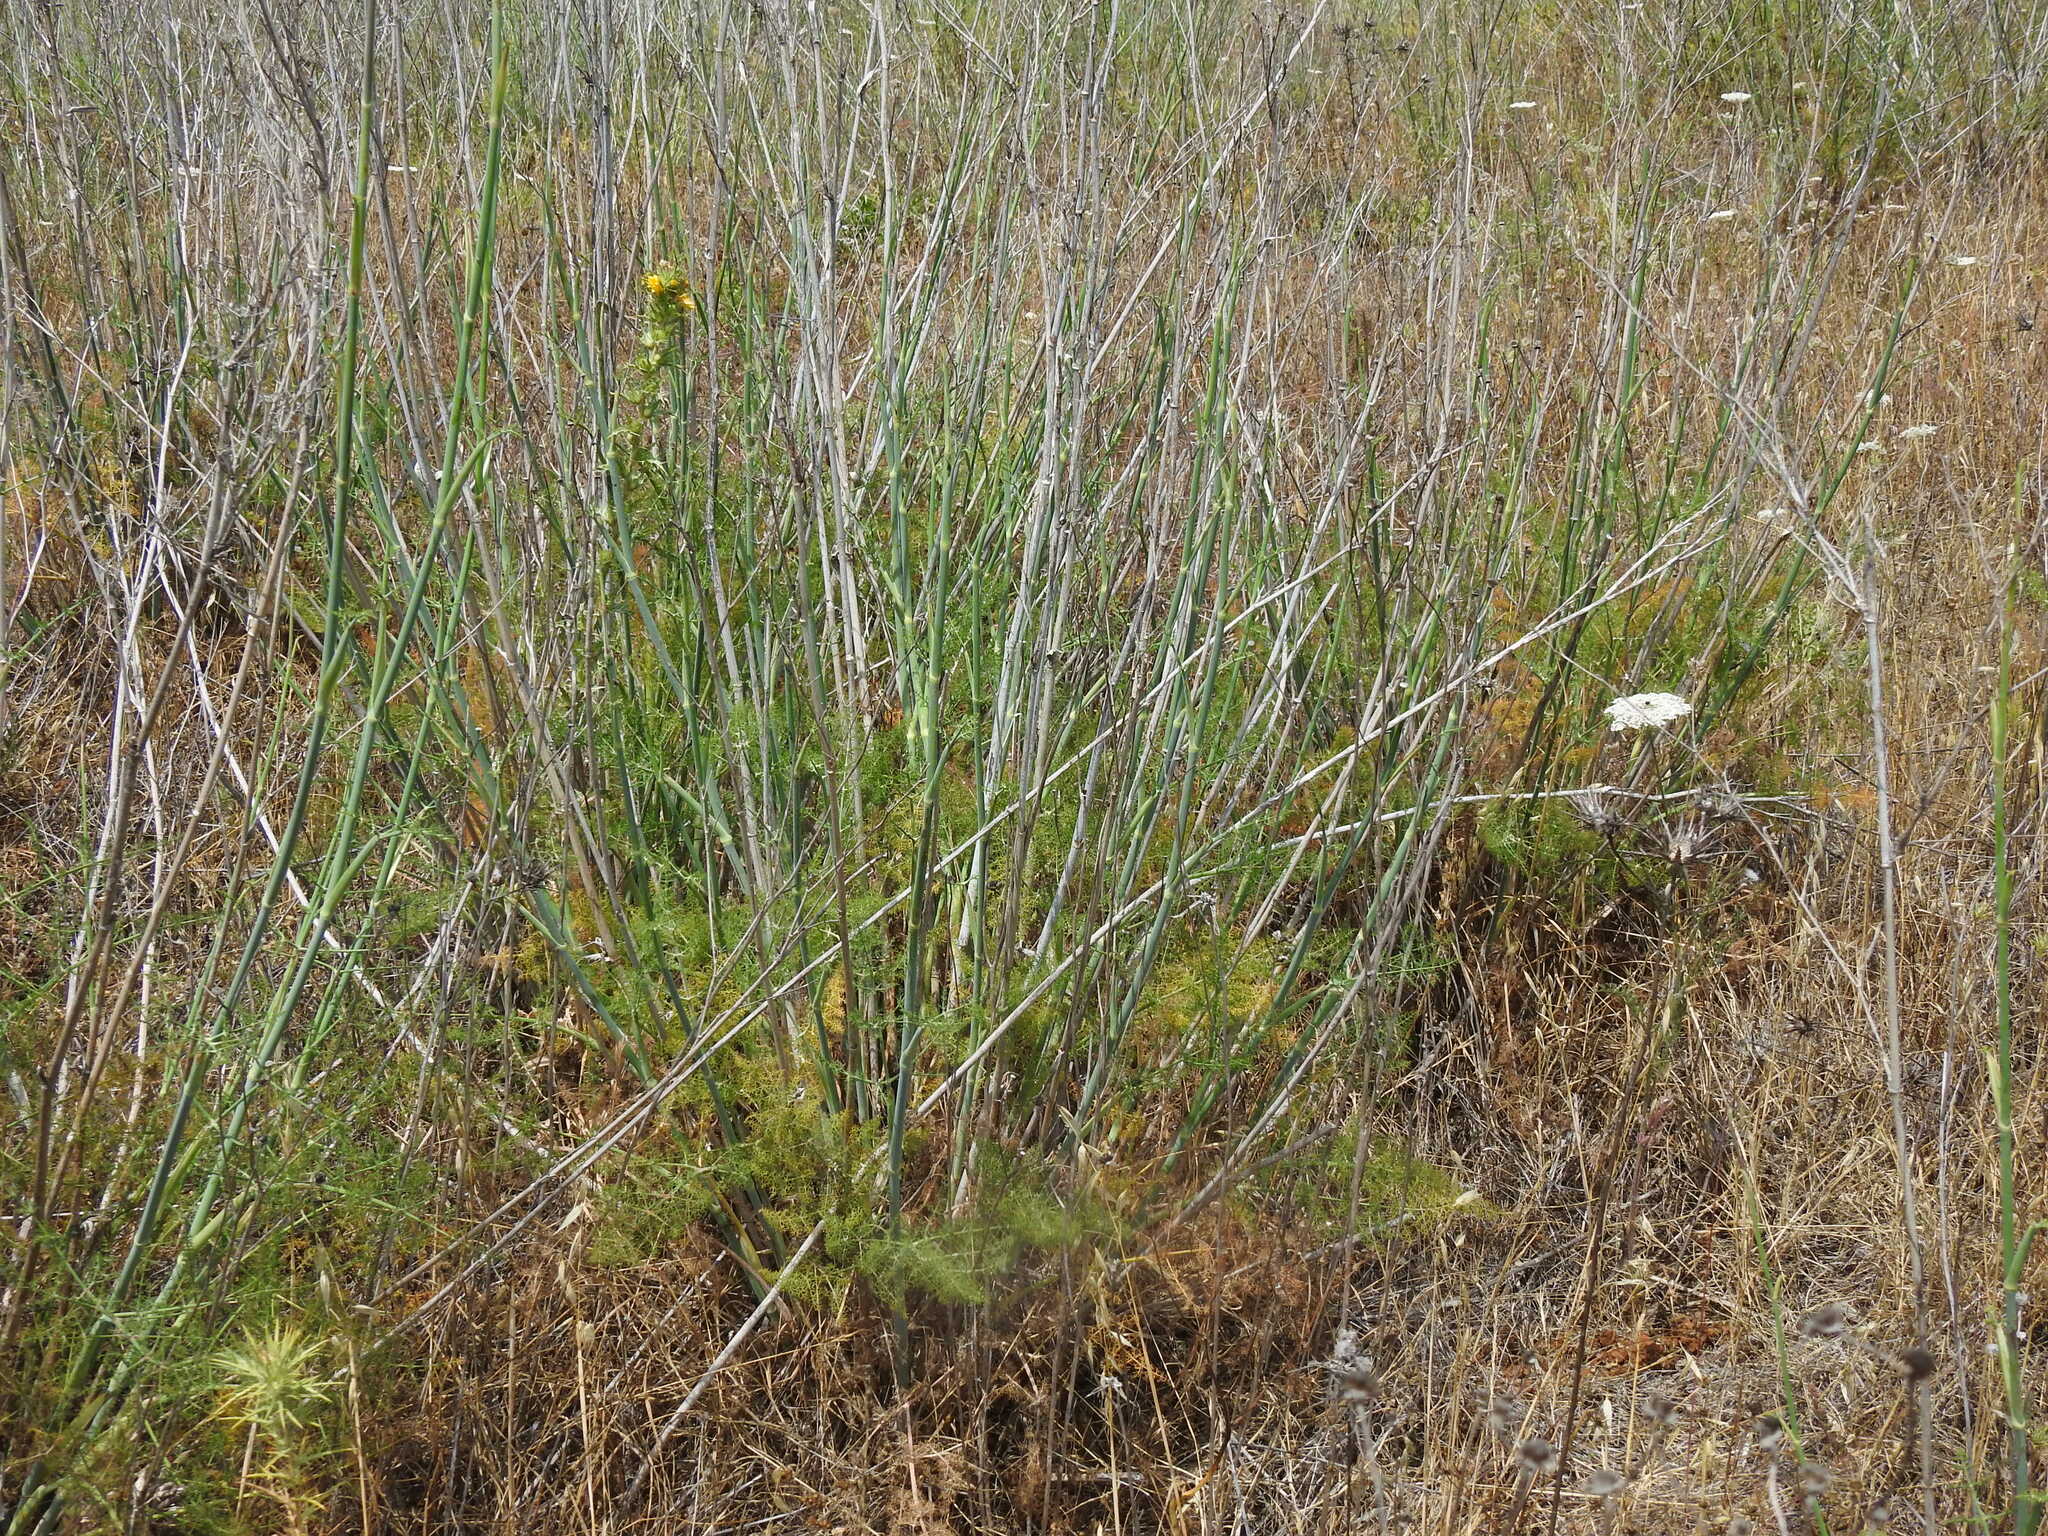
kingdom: Plantae
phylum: Tracheophyta
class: Magnoliopsida
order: Apiales
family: Apiaceae
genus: Foeniculum
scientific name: Foeniculum vulgare
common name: Fennel
